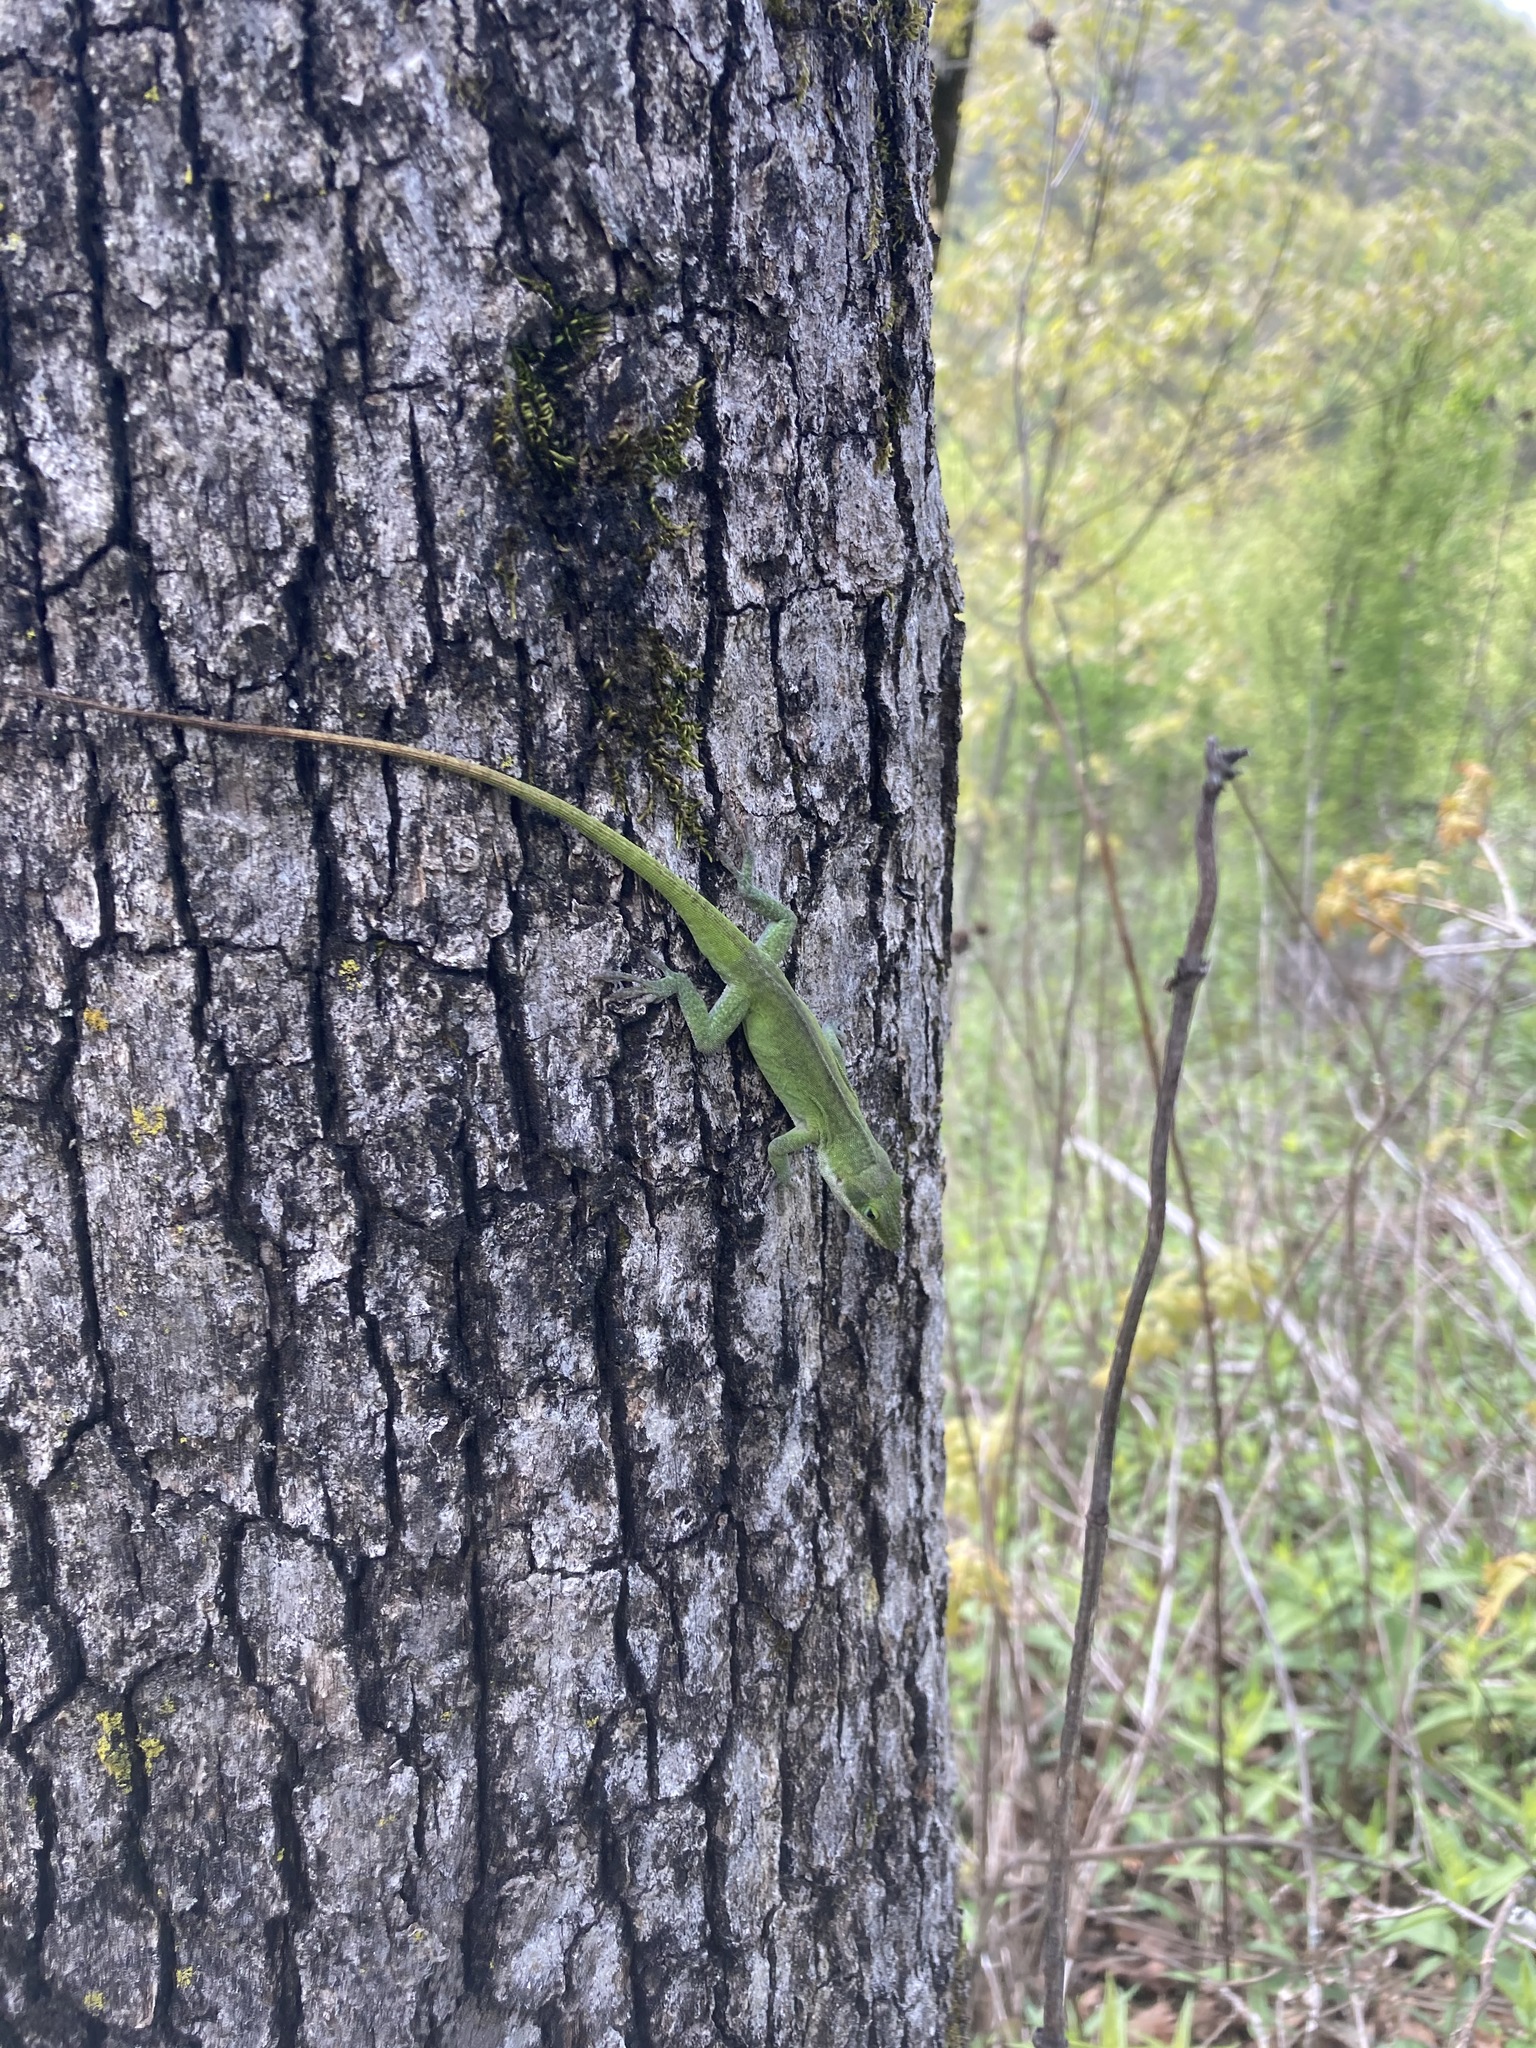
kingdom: Animalia
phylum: Chordata
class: Squamata
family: Dactyloidae
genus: Anolis
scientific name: Anolis carolinensis
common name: Green anole
